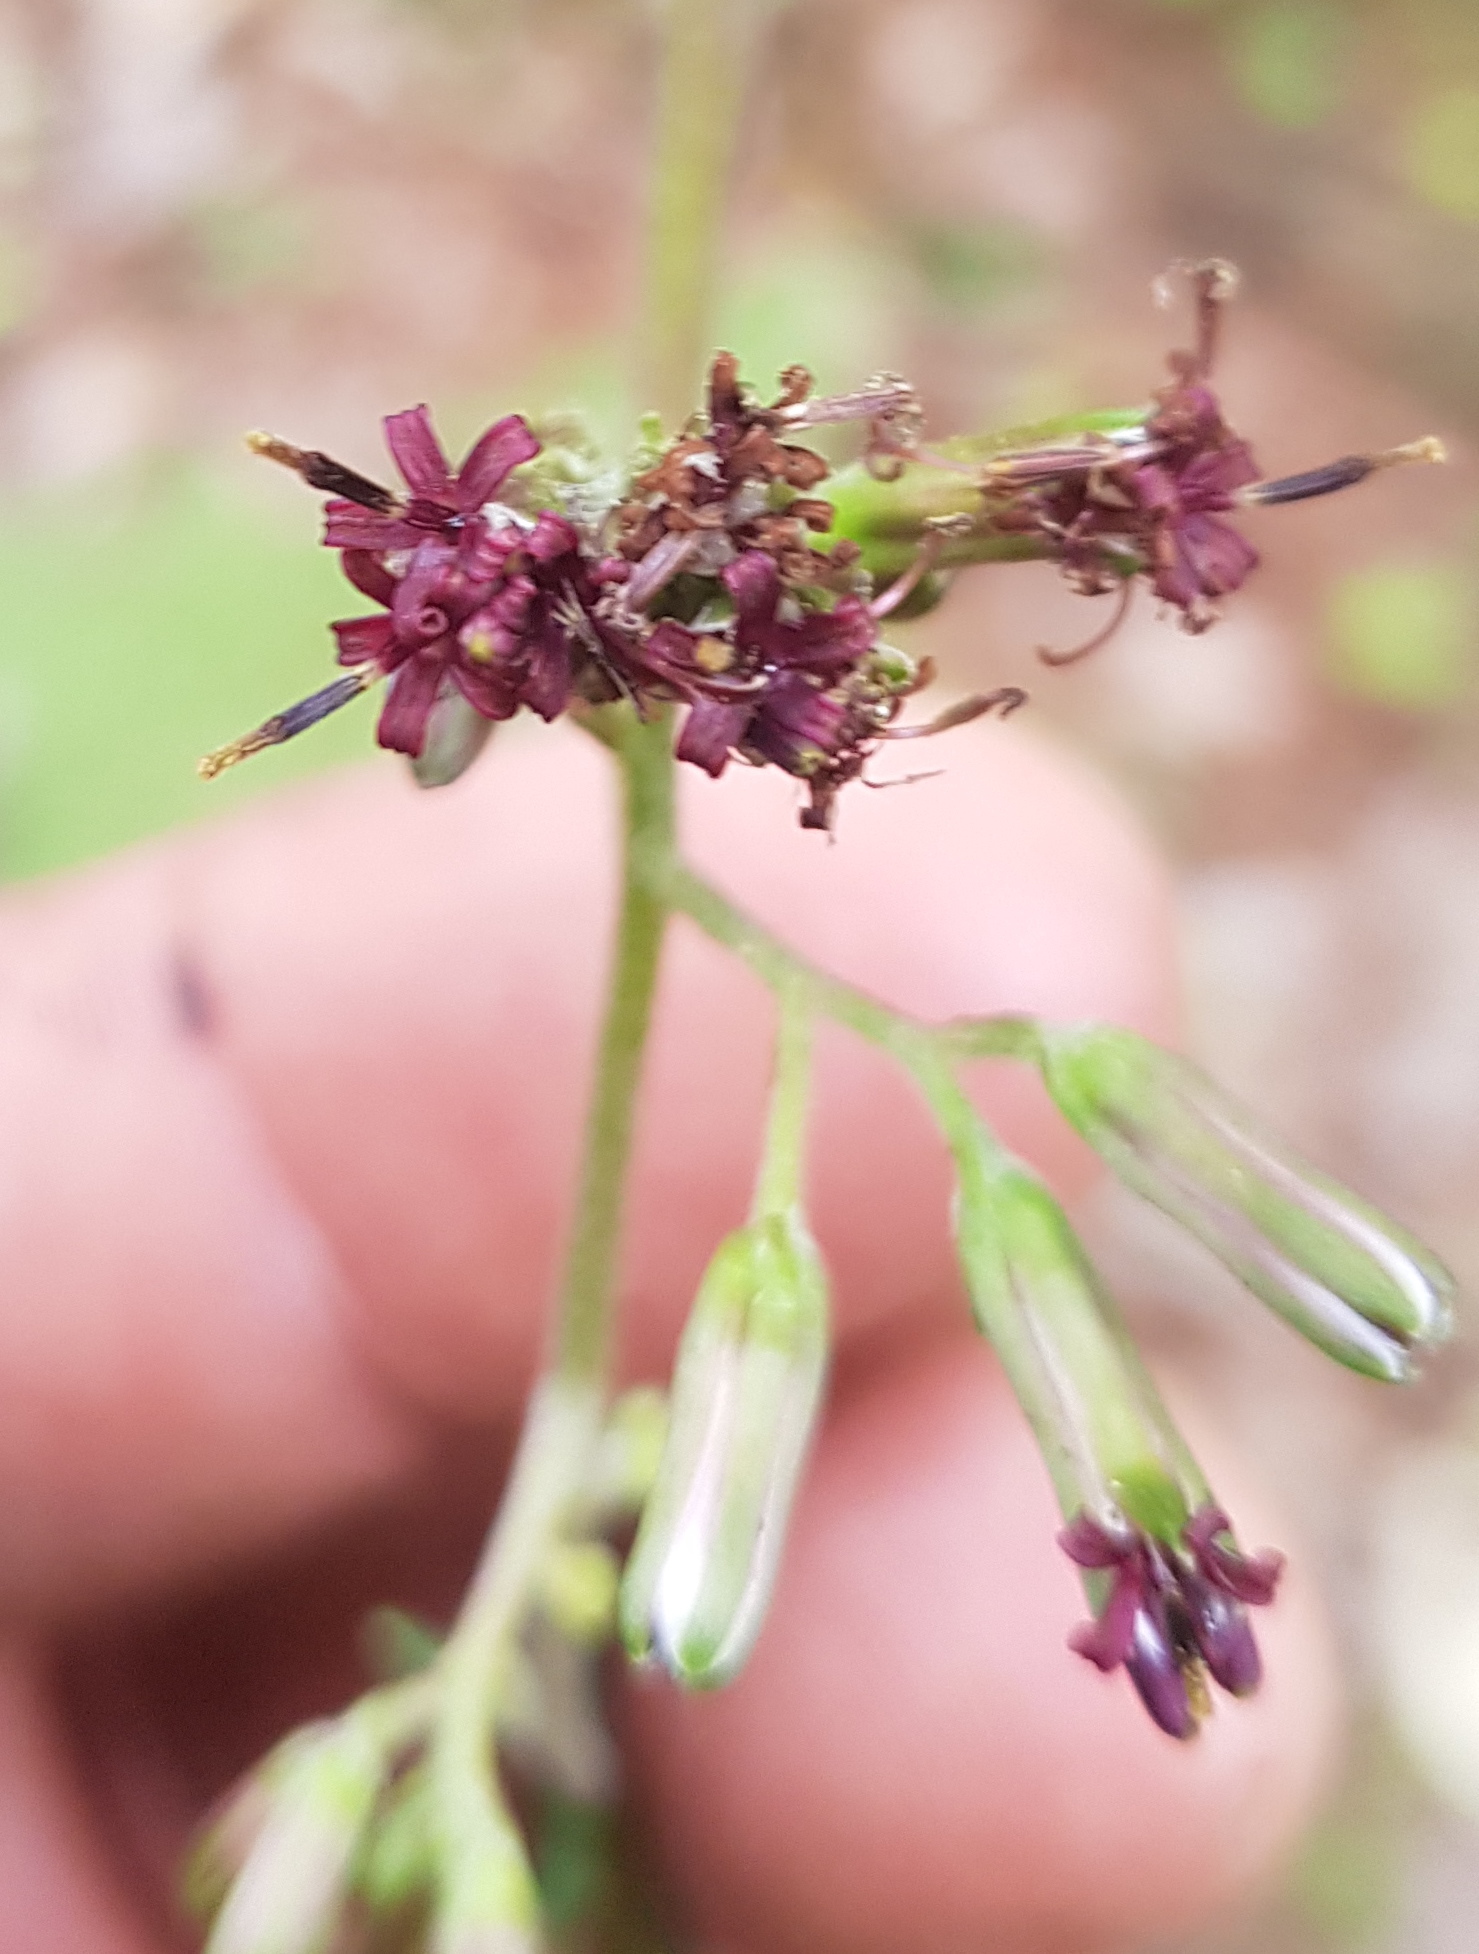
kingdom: Plantae
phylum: Tracheophyta
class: Magnoliopsida
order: Asterales
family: Asteraceae
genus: Psacalium
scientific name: Psacalium peltatum
